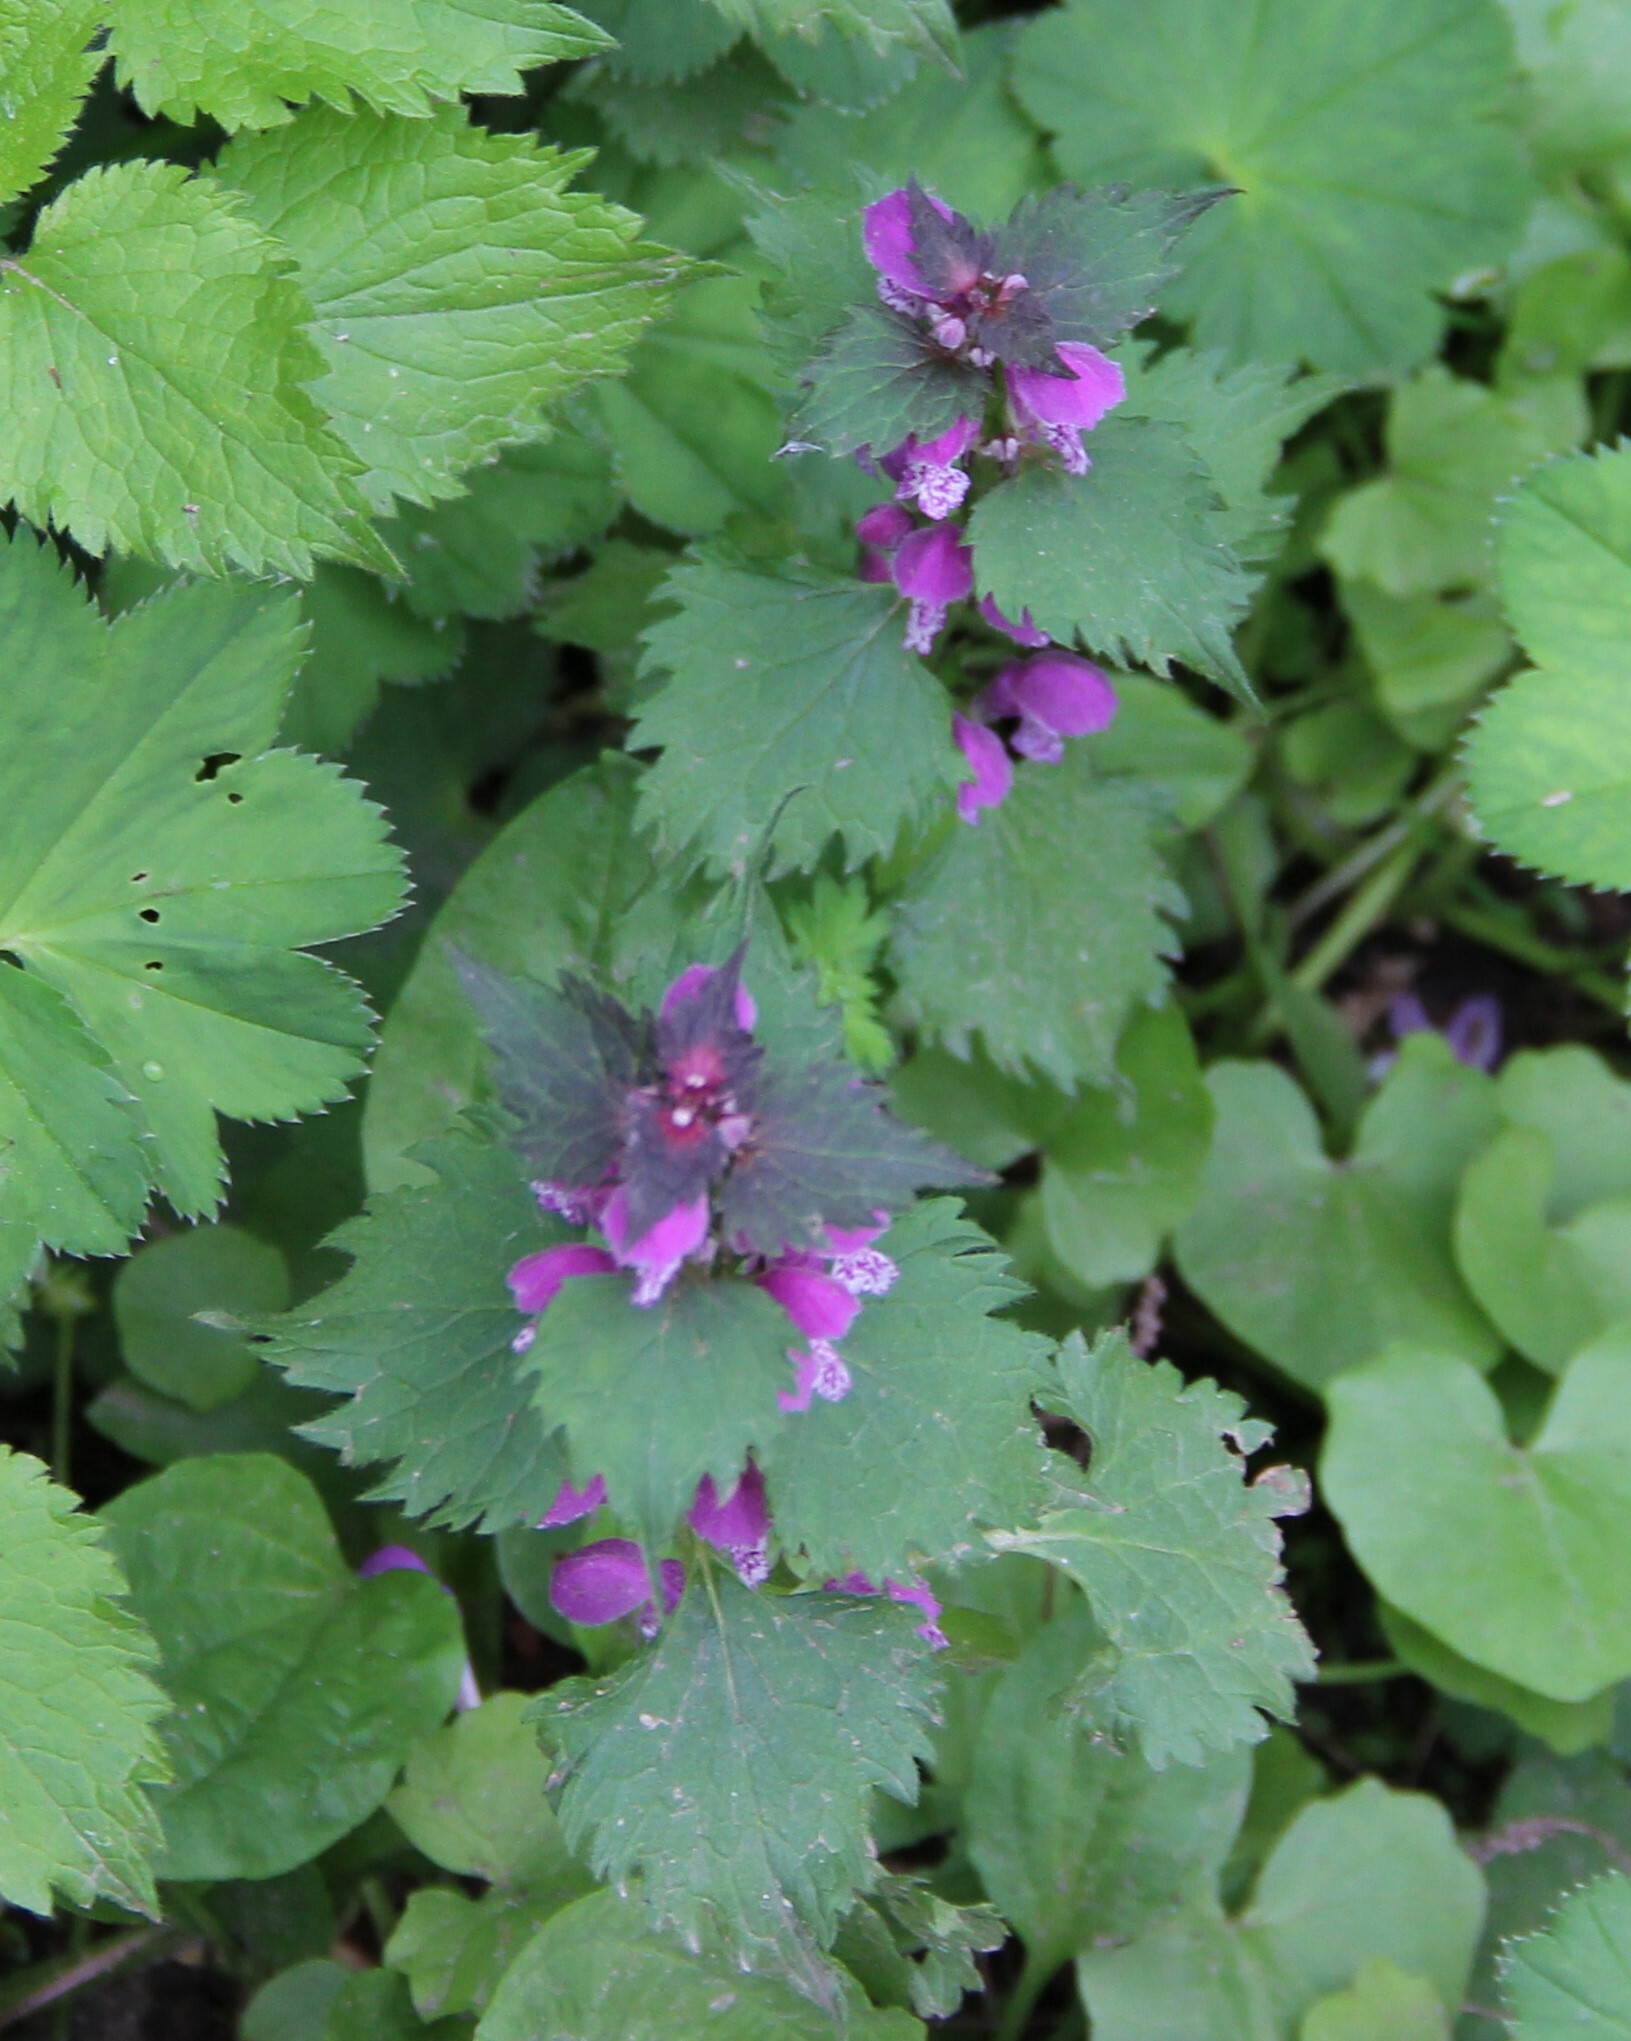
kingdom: Plantae
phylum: Tracheophyta
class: Magnoliopsida
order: Lamiales
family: Lamiaceae
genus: Lamium
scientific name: Lamium maculatum
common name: Spotted dead-nettle
